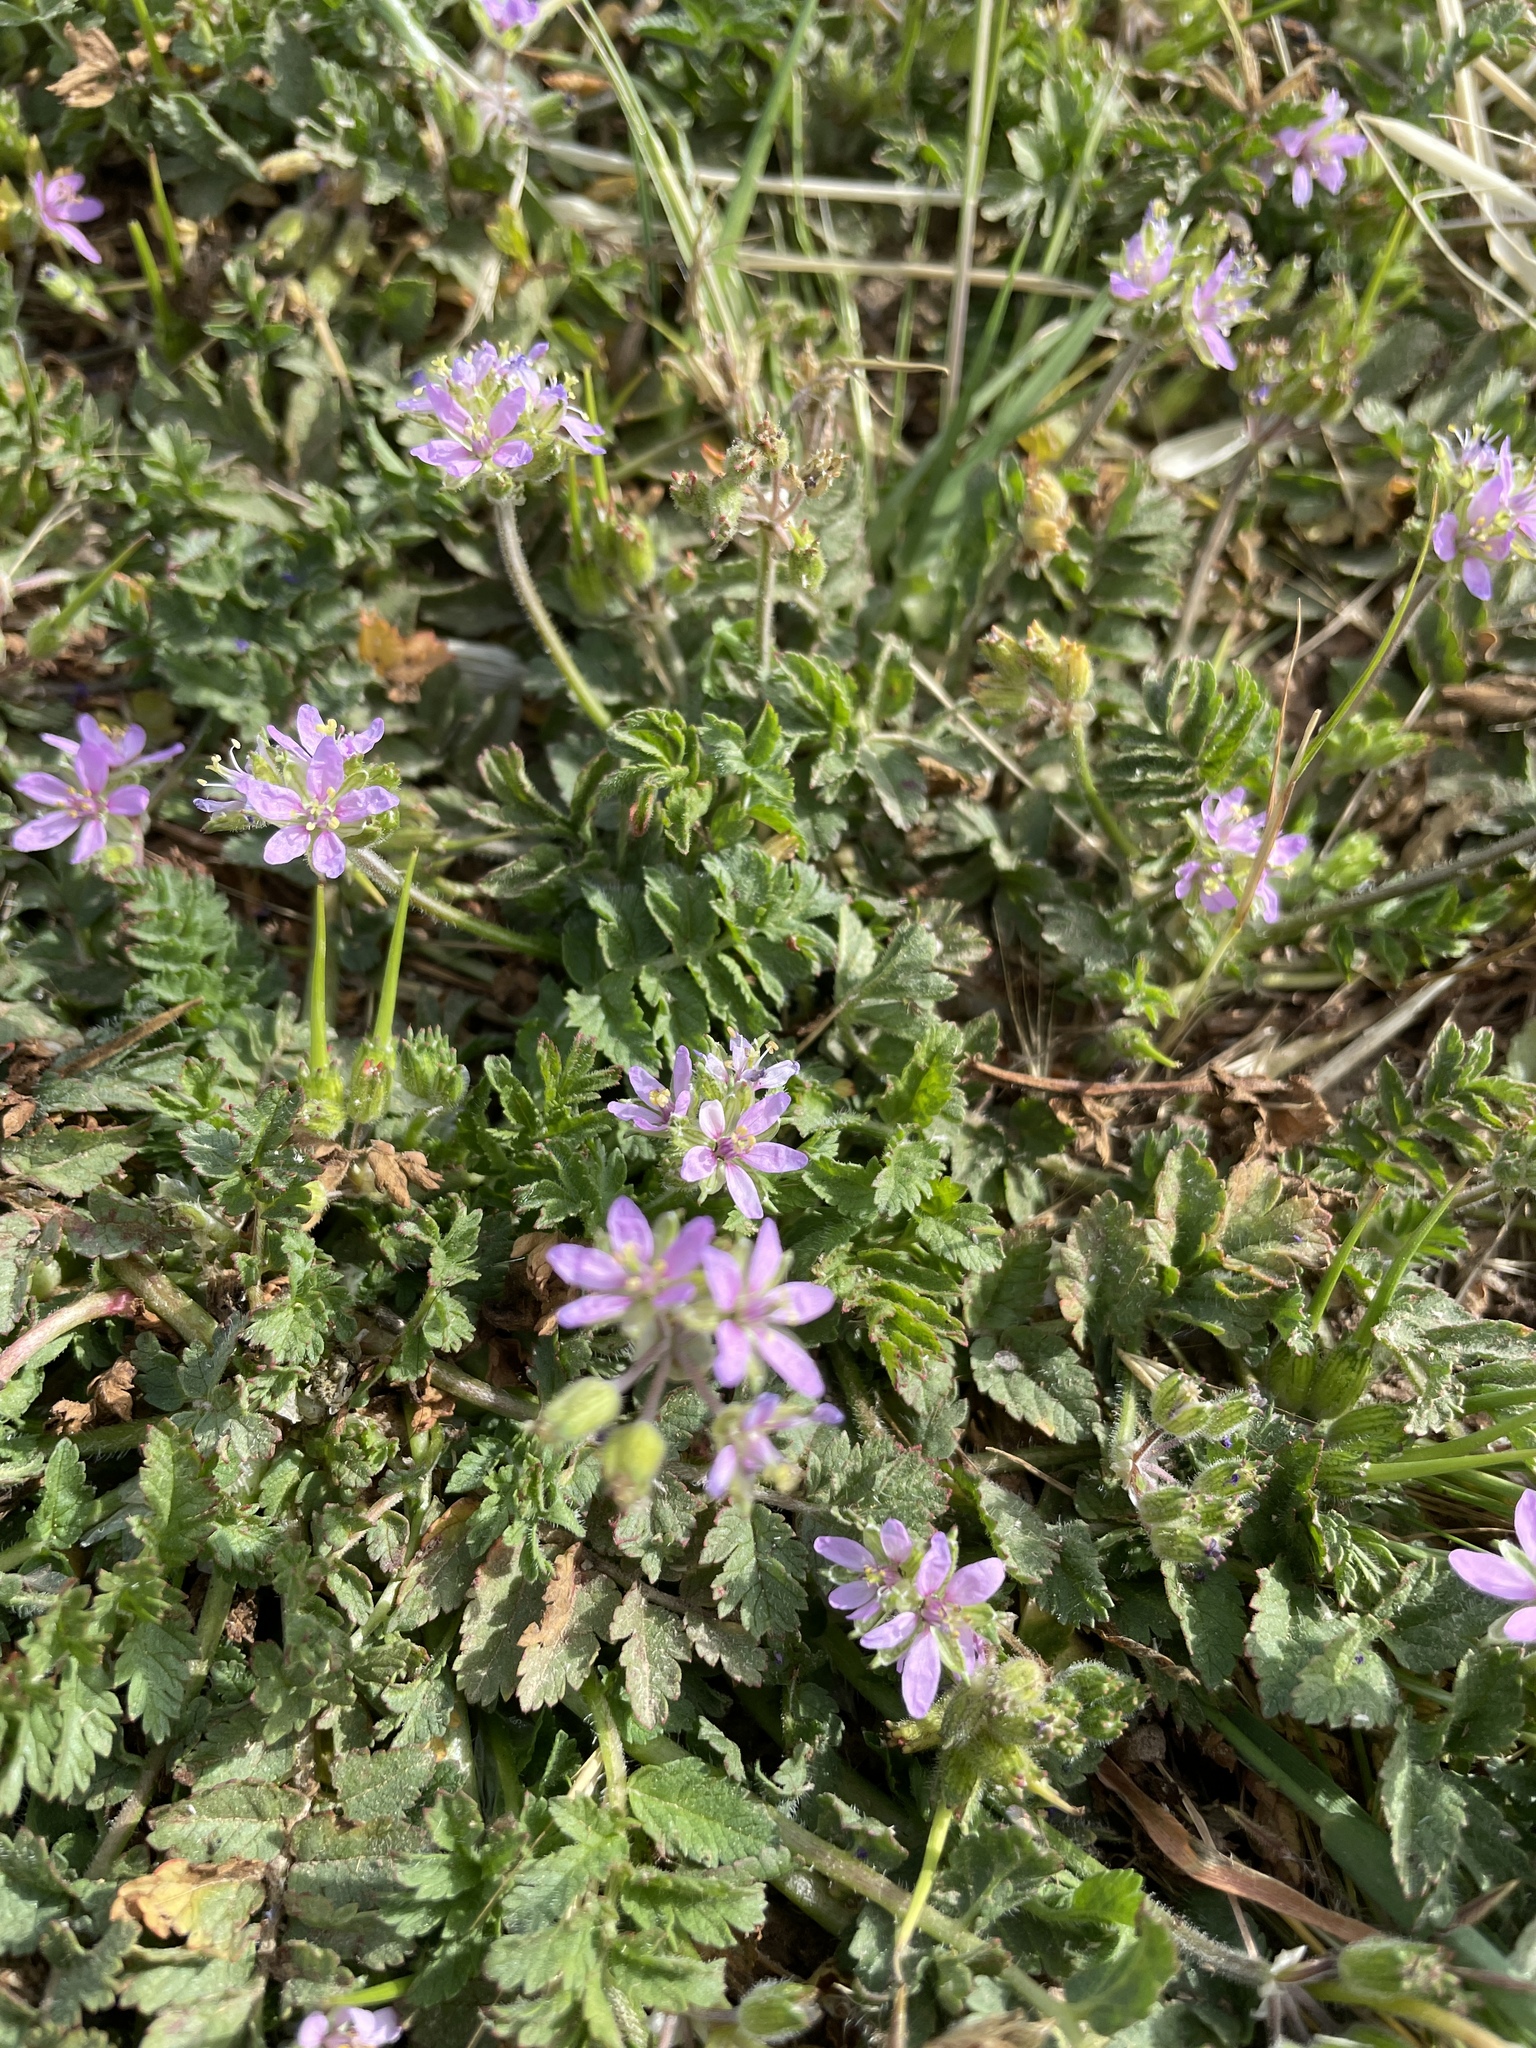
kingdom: Plantae
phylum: Tracheophyta
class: Magnoliopsida
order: Geraniales
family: Geraniaceae
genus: Erodium
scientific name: Erodium moschatum
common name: Musk stork's-bill
